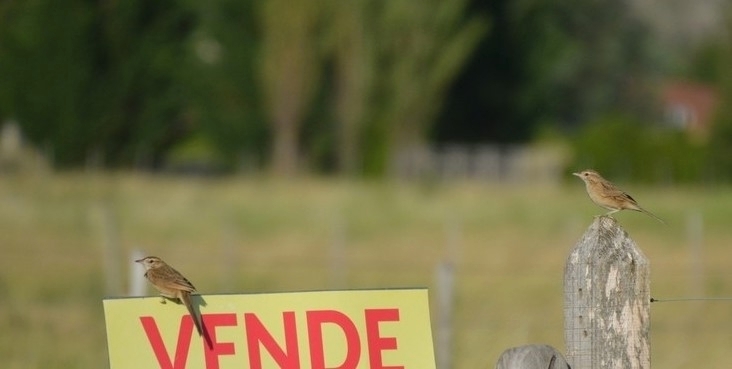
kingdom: Animalia
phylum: Chordata
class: Aves
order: Passeriformes
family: Furnariidae
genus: Anumbius
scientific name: Anumbius annumbi
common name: Firewood-gatherer
